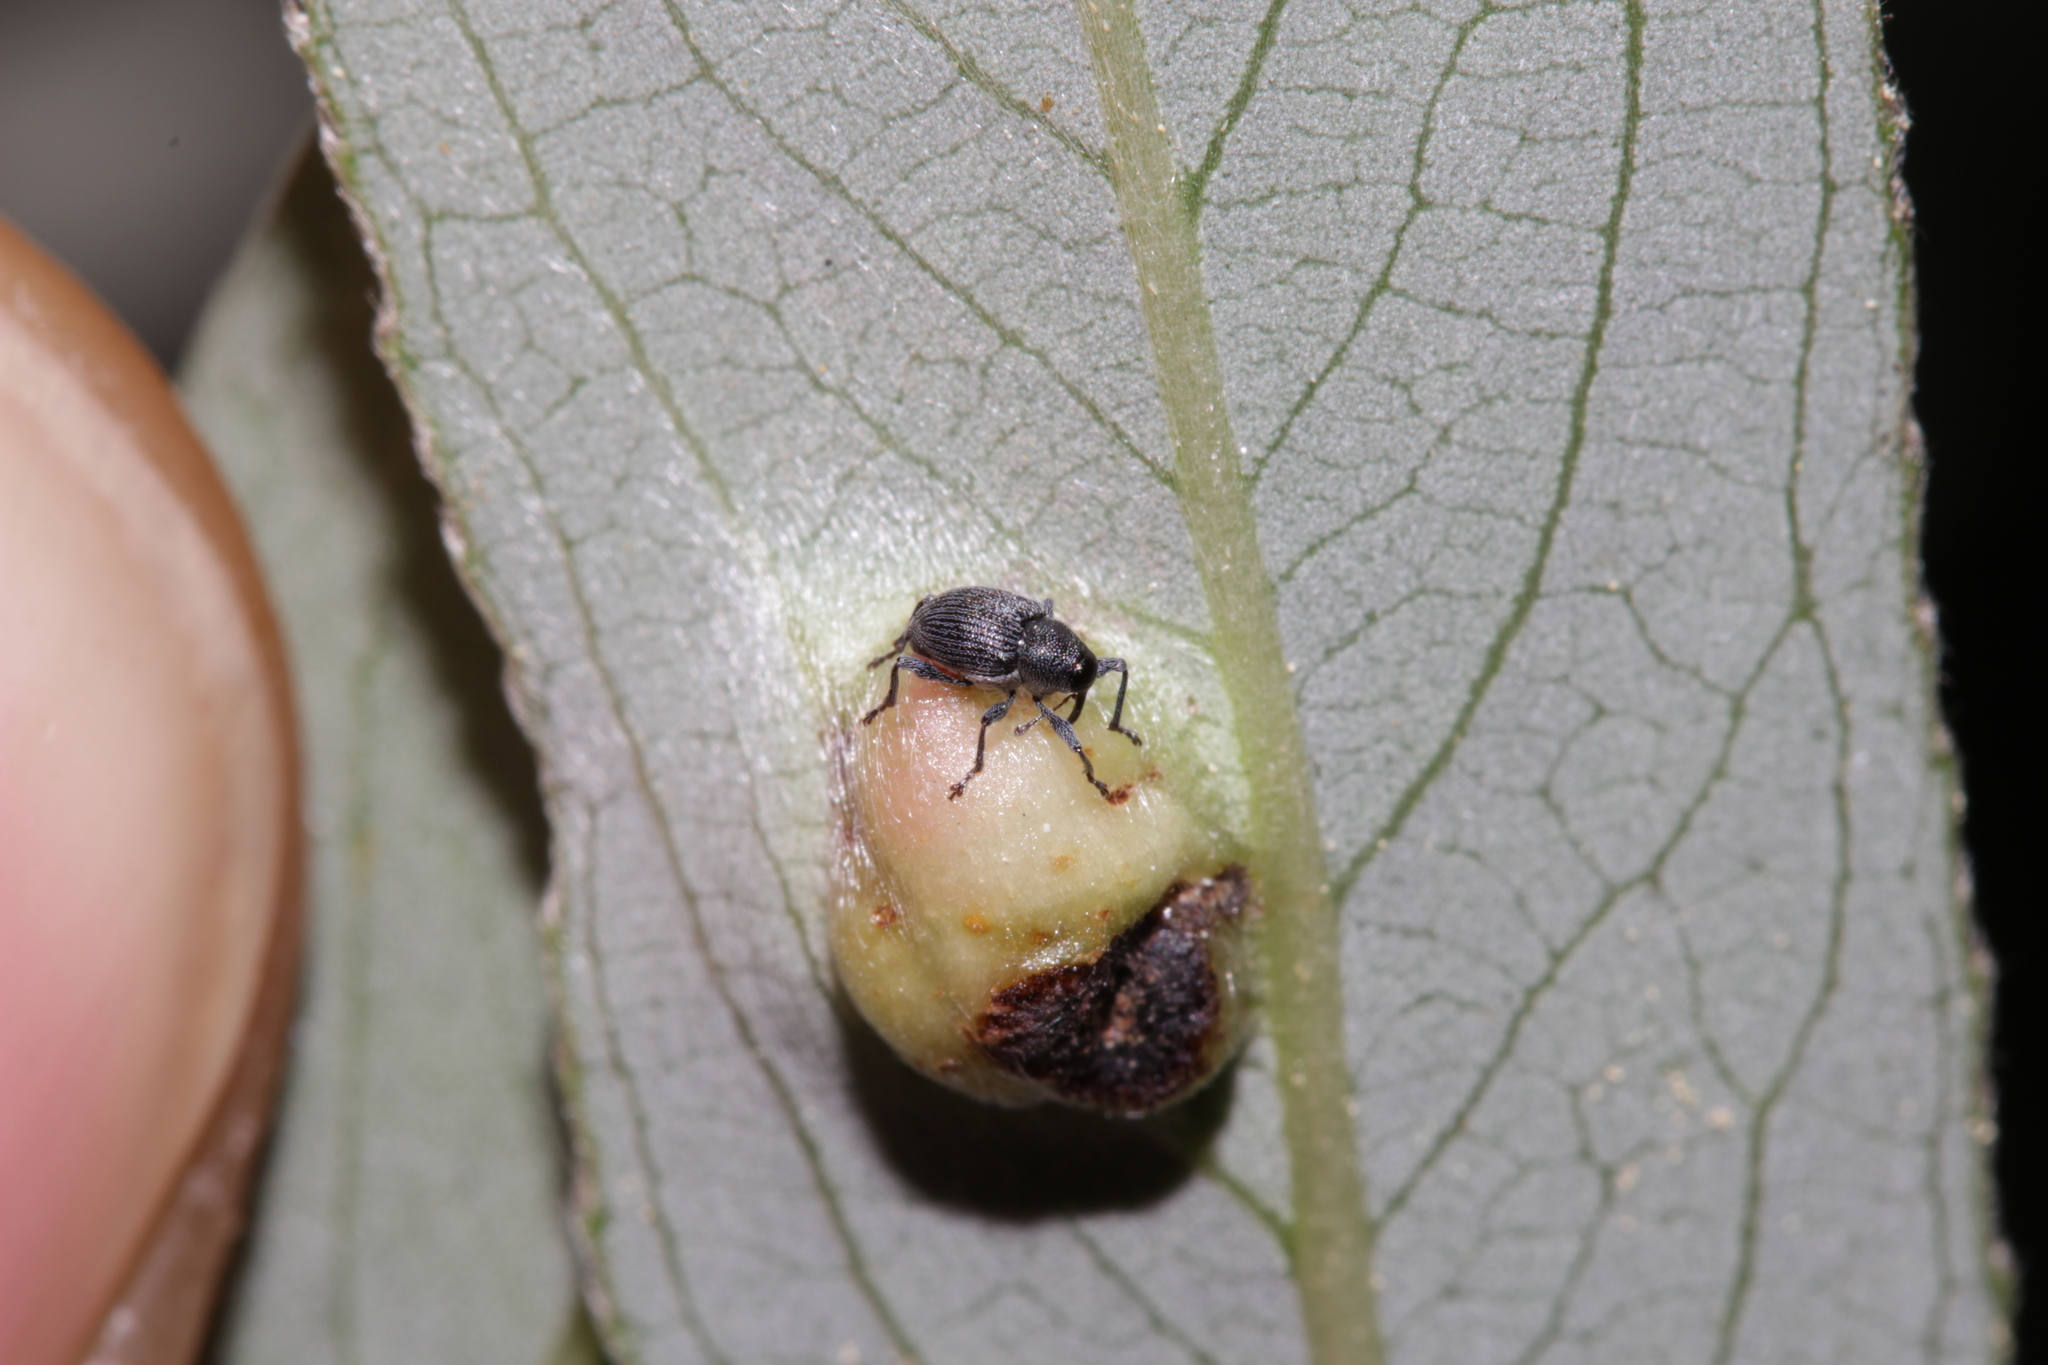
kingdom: Animalia
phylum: Arthropoda
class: Insecta
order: Coleoptera
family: Curculionidae
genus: Archarius
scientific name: Archarius salicivorus
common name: Weevil
